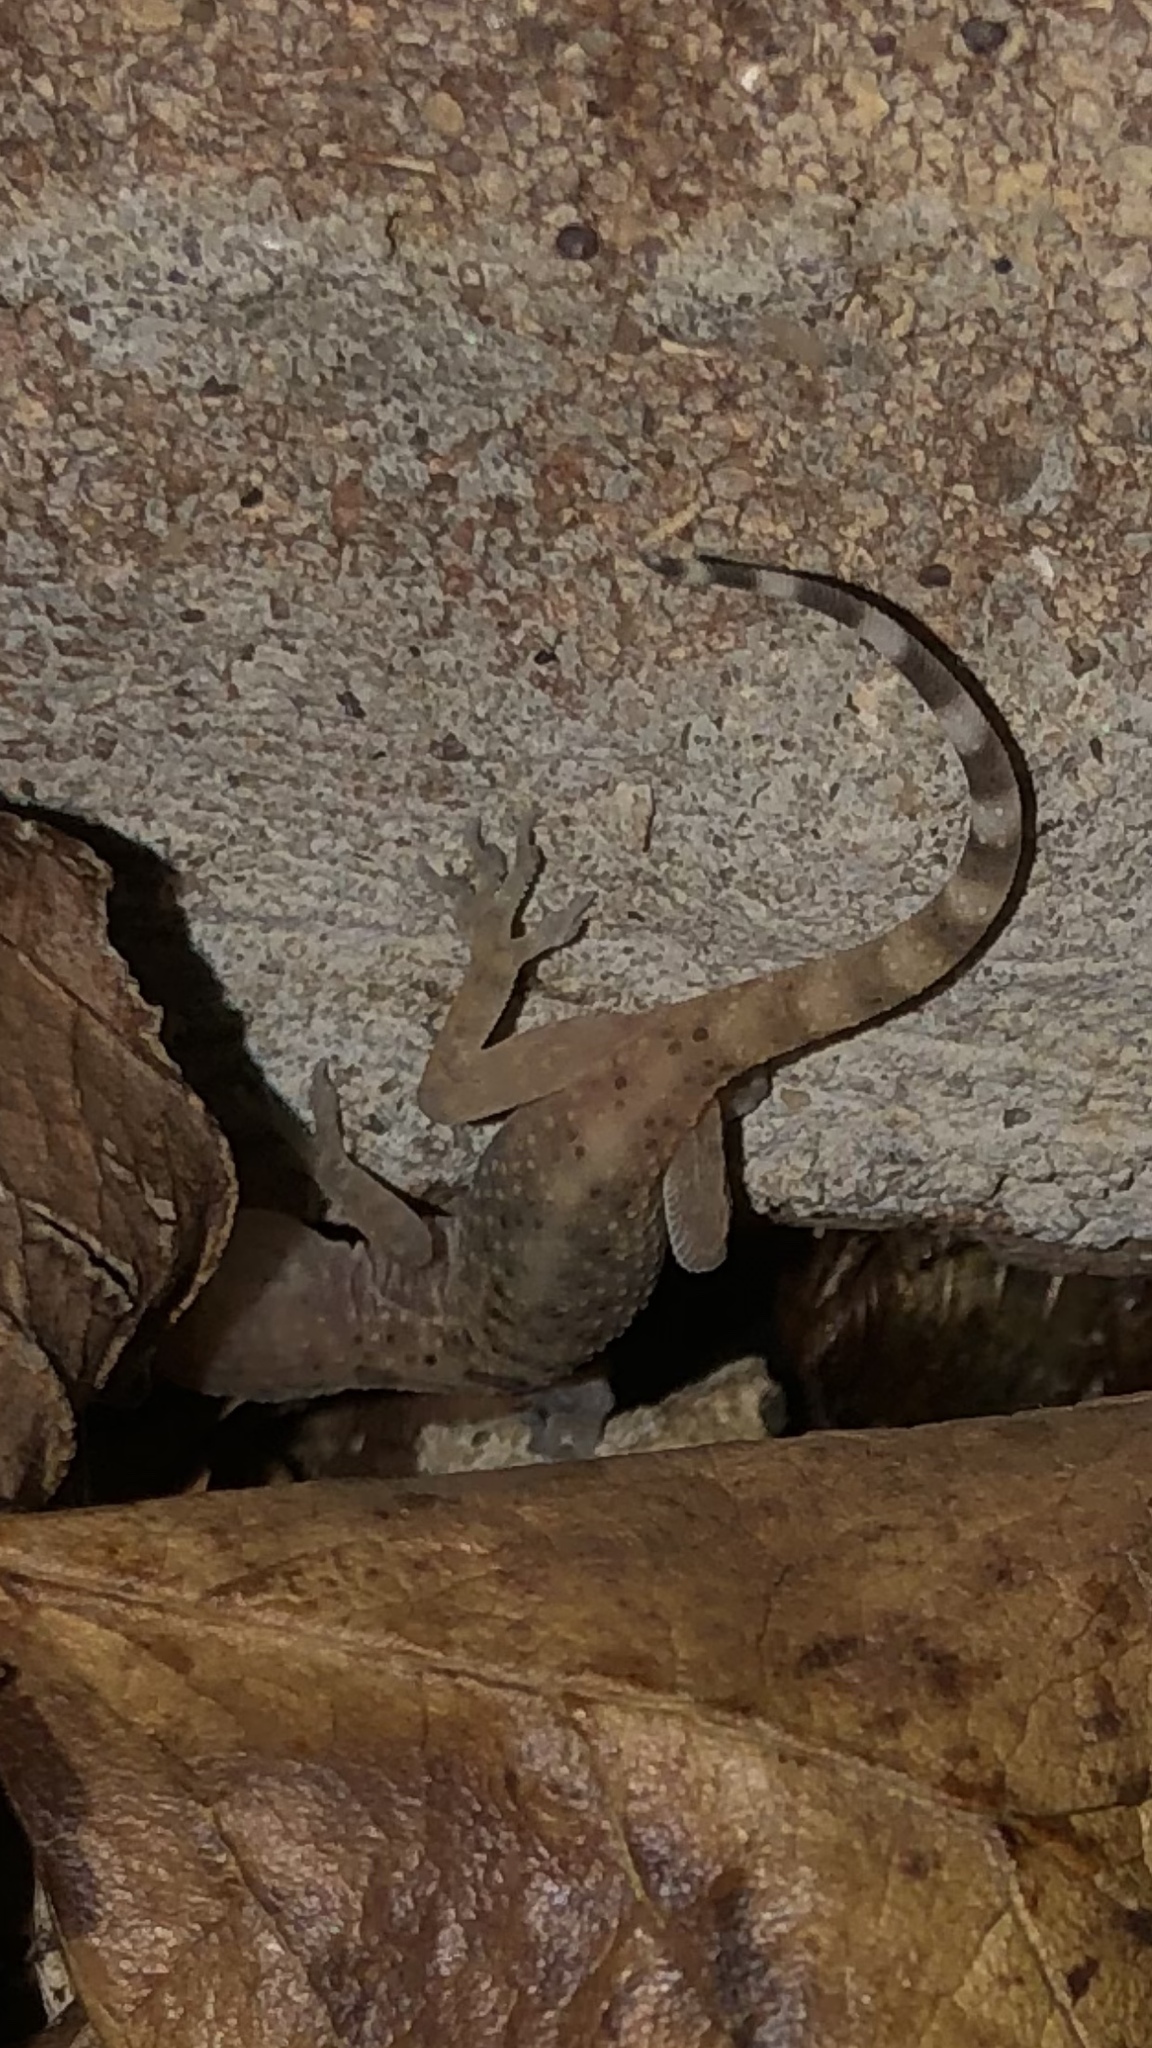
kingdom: Animalia
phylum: Chordata
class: Squamata
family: Gekkonidae
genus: Hemidactylus
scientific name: Hemidactylus turcicus
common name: Turkish gecko
